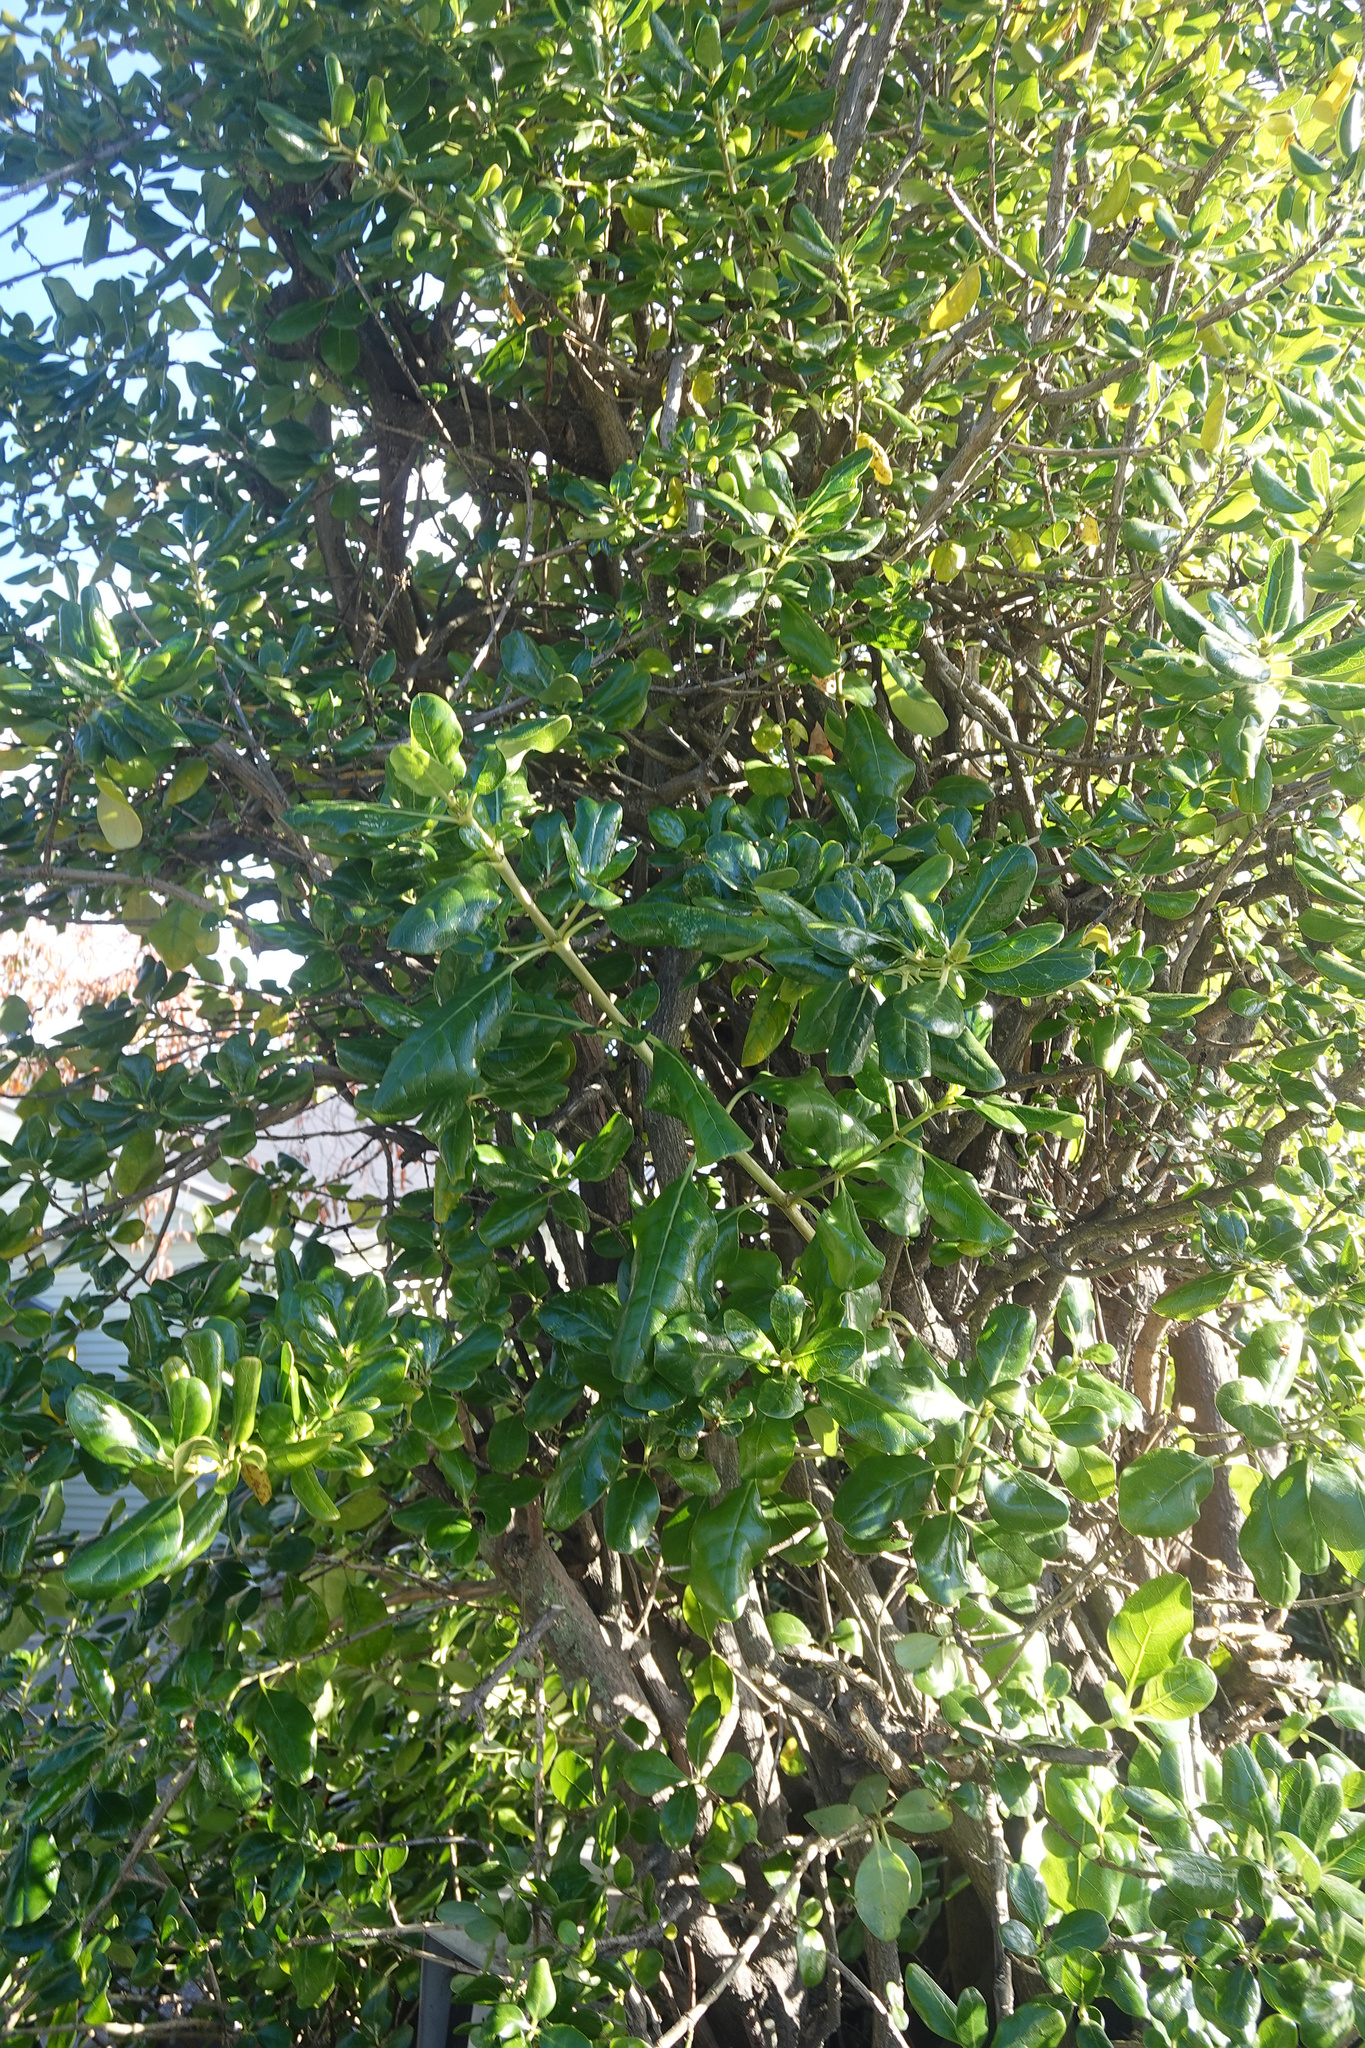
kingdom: Plantae
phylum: Tracheophyta
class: Magnoliopsida
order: Gentianales
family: Rubiaceae
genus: Coprosma
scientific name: Coprosma repens
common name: Tree bedstraw
